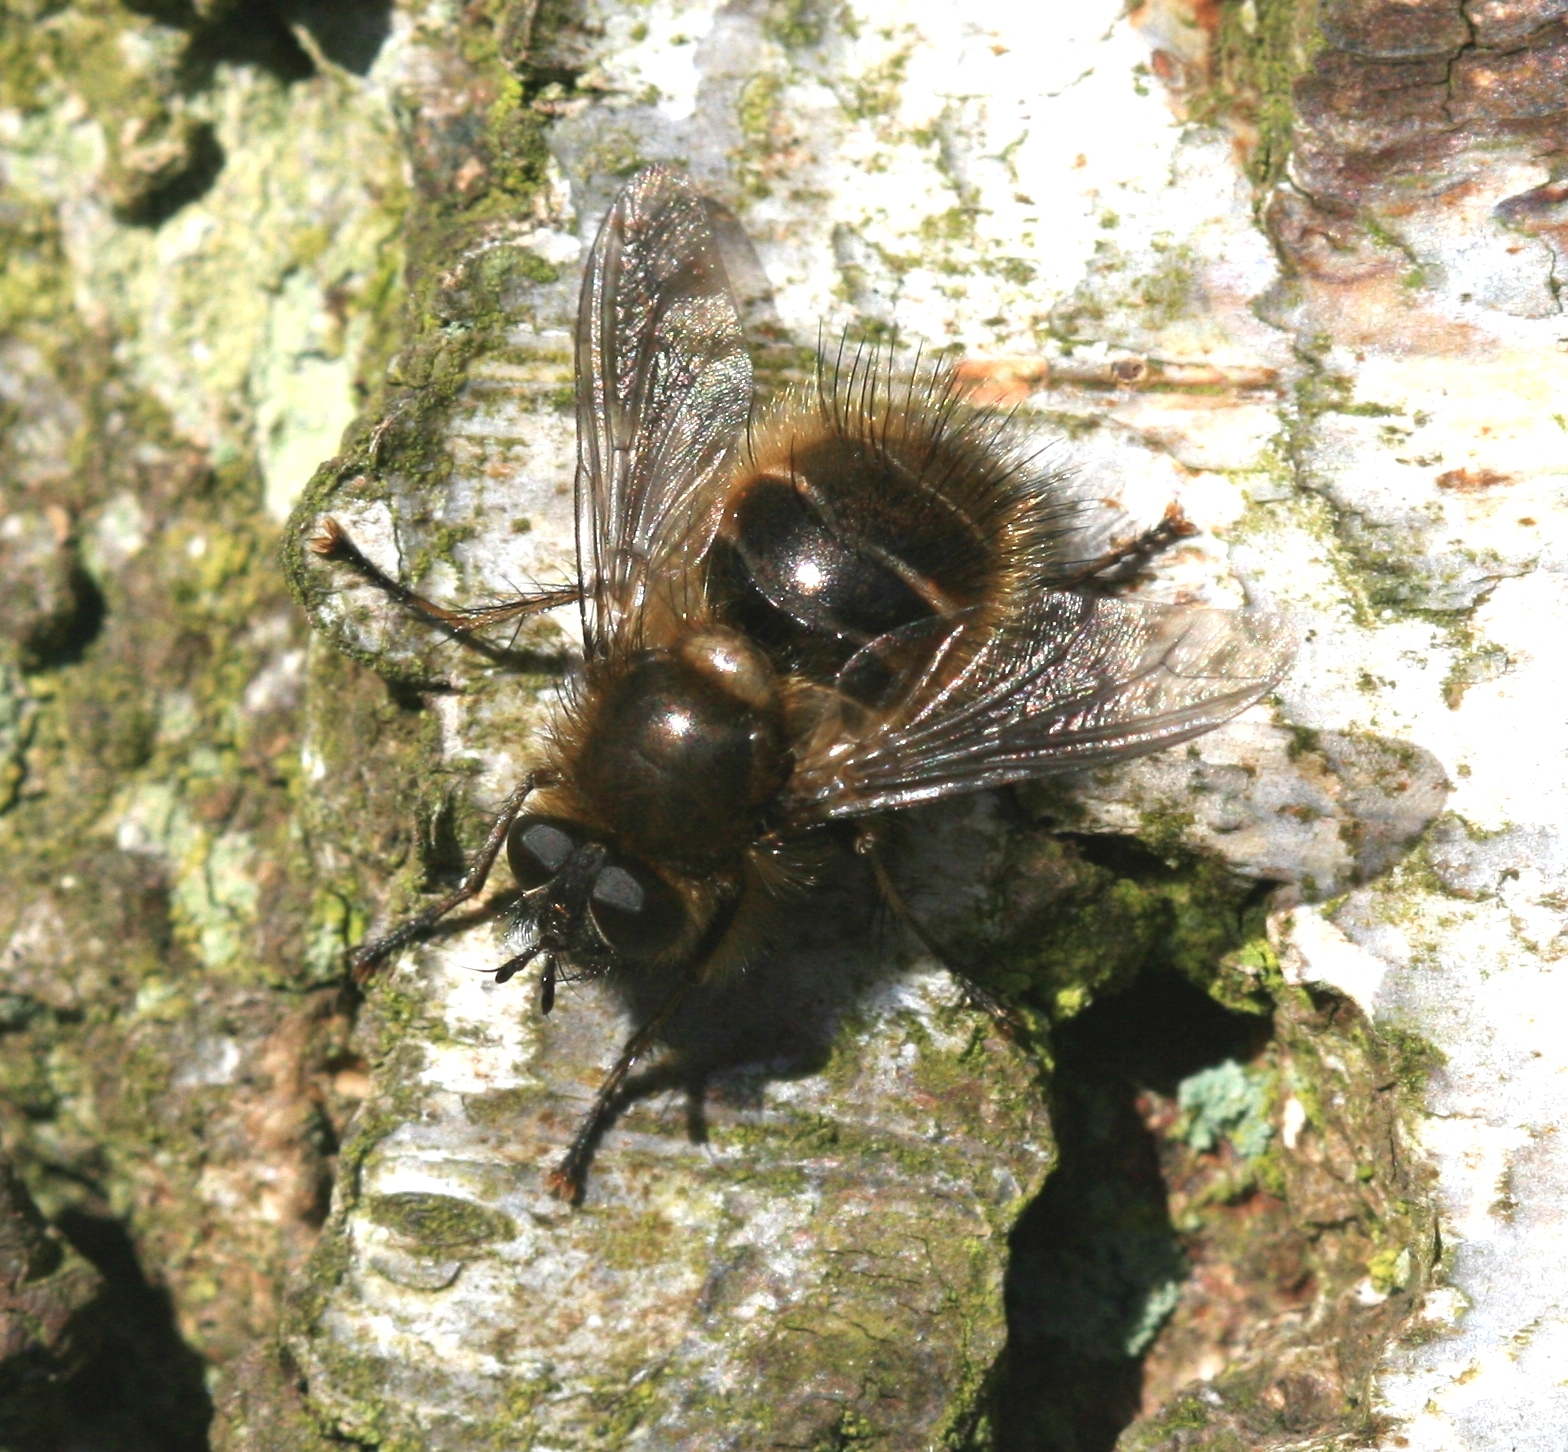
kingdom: Animalia
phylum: Arthropoda
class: Insecta
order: Diptera
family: Tachinidae
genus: Tachina
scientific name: Tachina ursina
